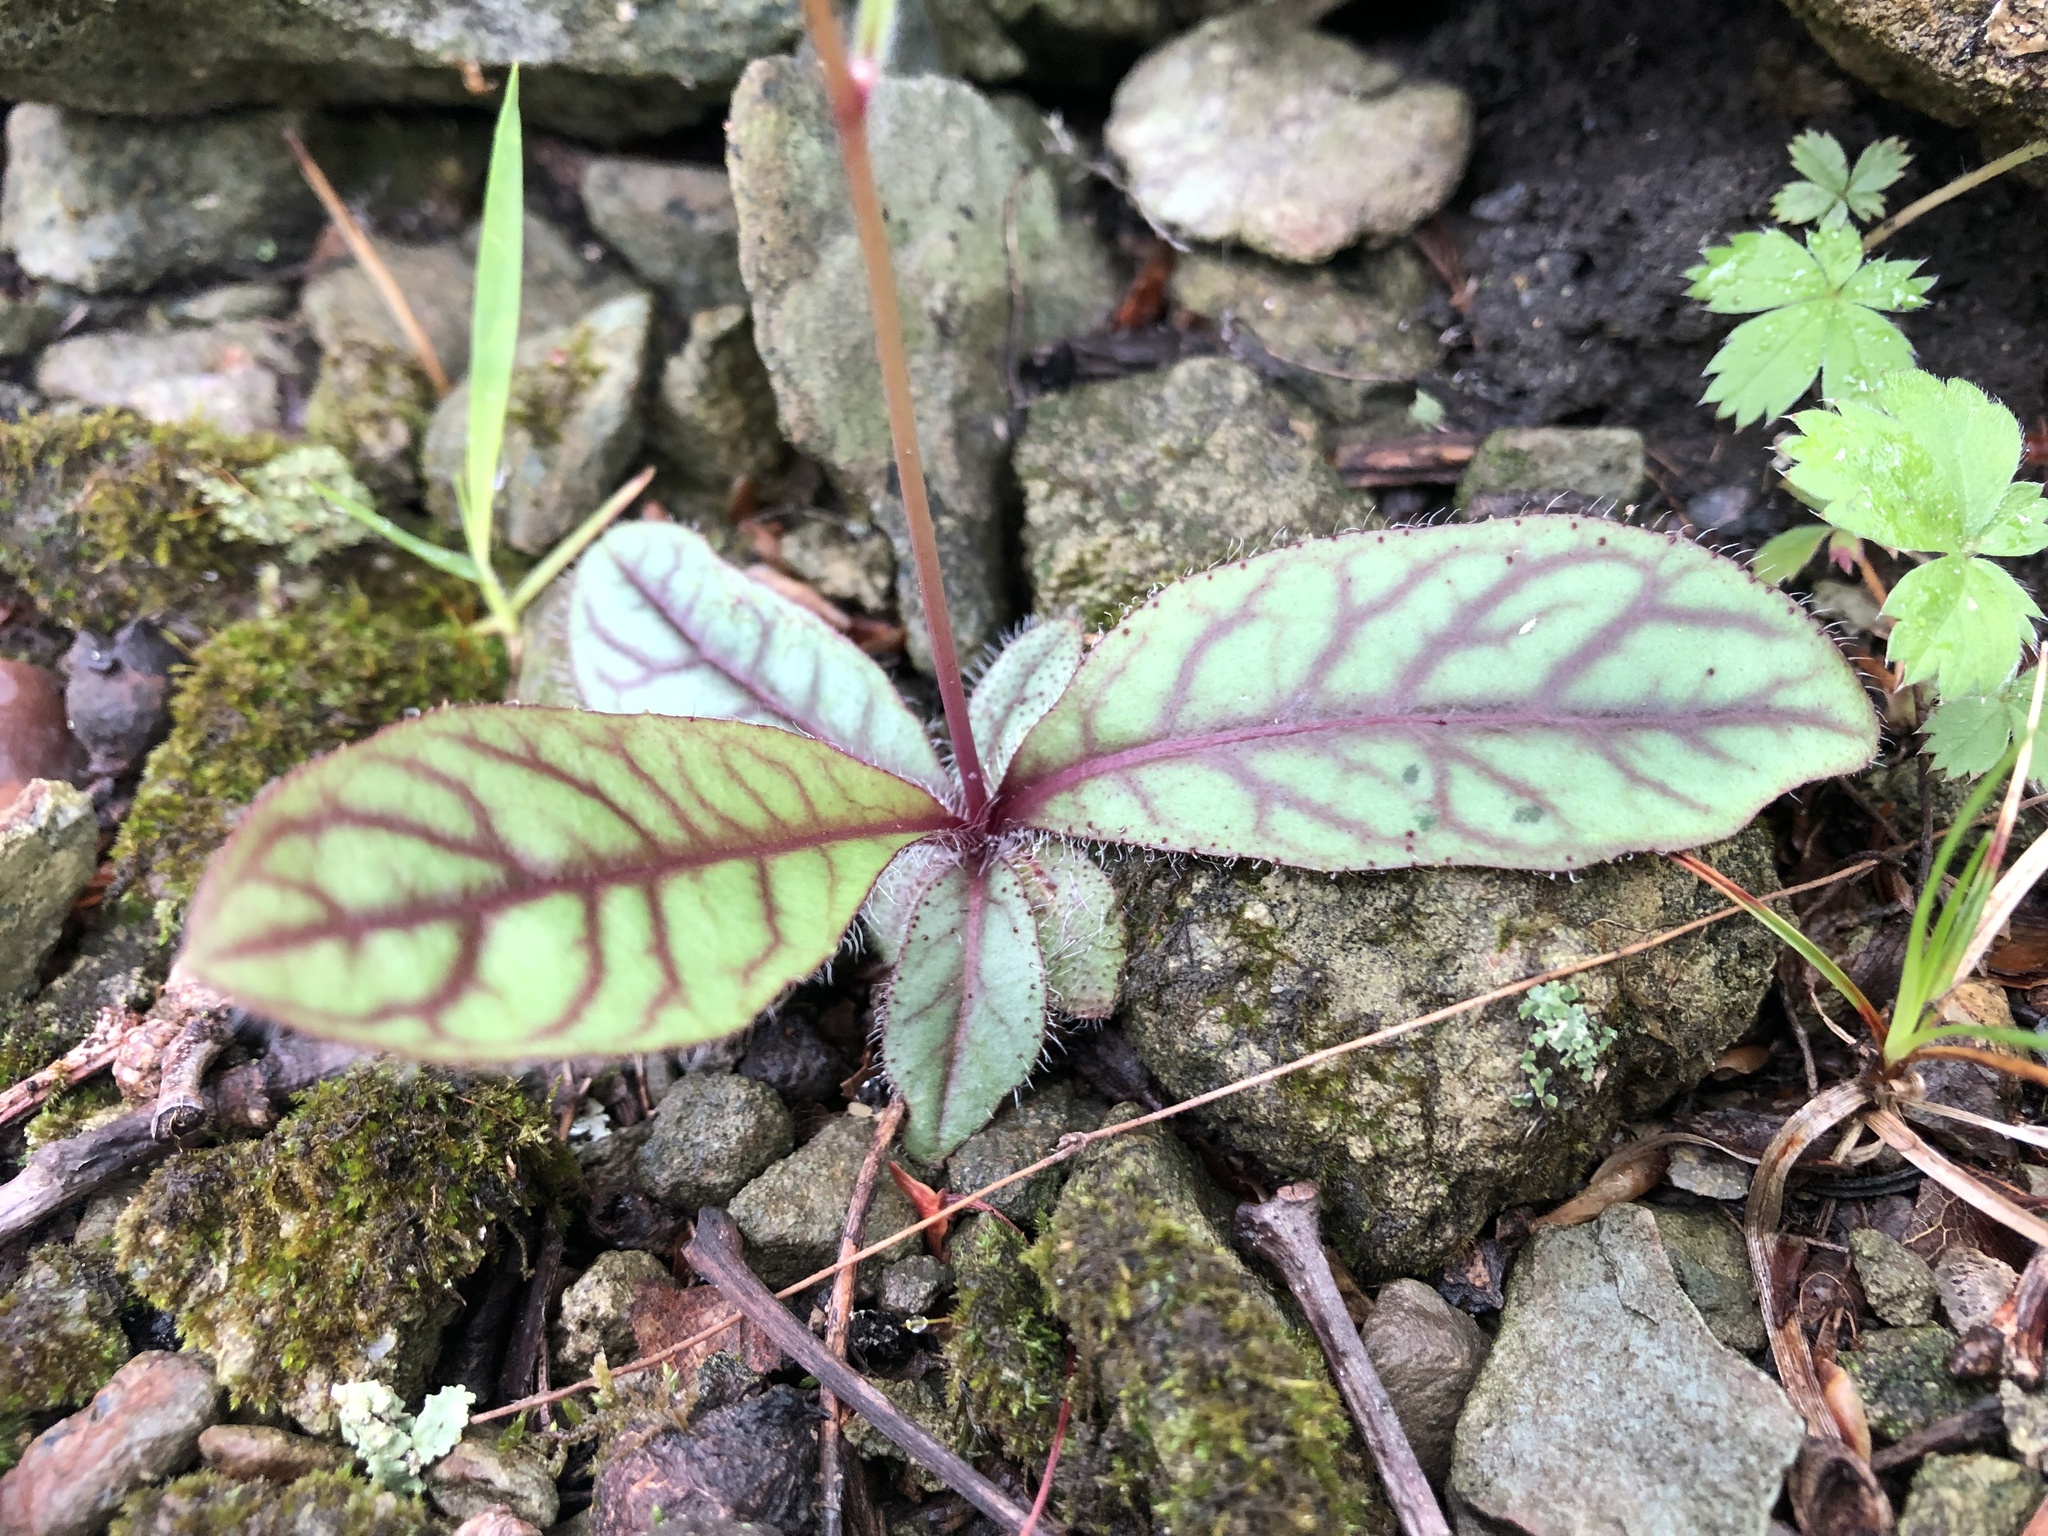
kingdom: Plantae
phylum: Tracheophyta
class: Magnoliopsida
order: Asterales
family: Asteraceae
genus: Hieracium
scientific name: Hieracium venosum
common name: Rattlesnake hawkweed
